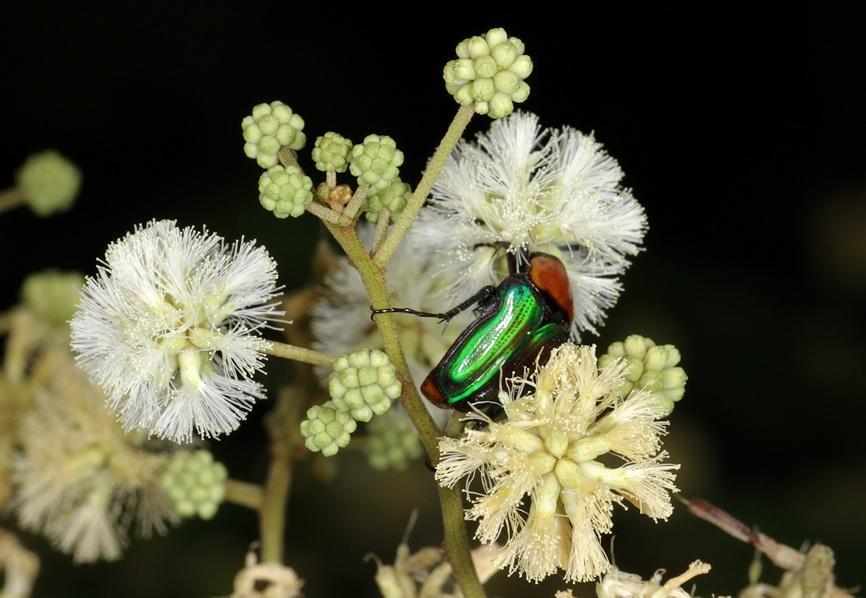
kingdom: Animalia
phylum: Arthropoda
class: Insecta
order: Coleoptera
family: Scarabaeidae
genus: Leucocelis
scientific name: Leucocelis amethystina
